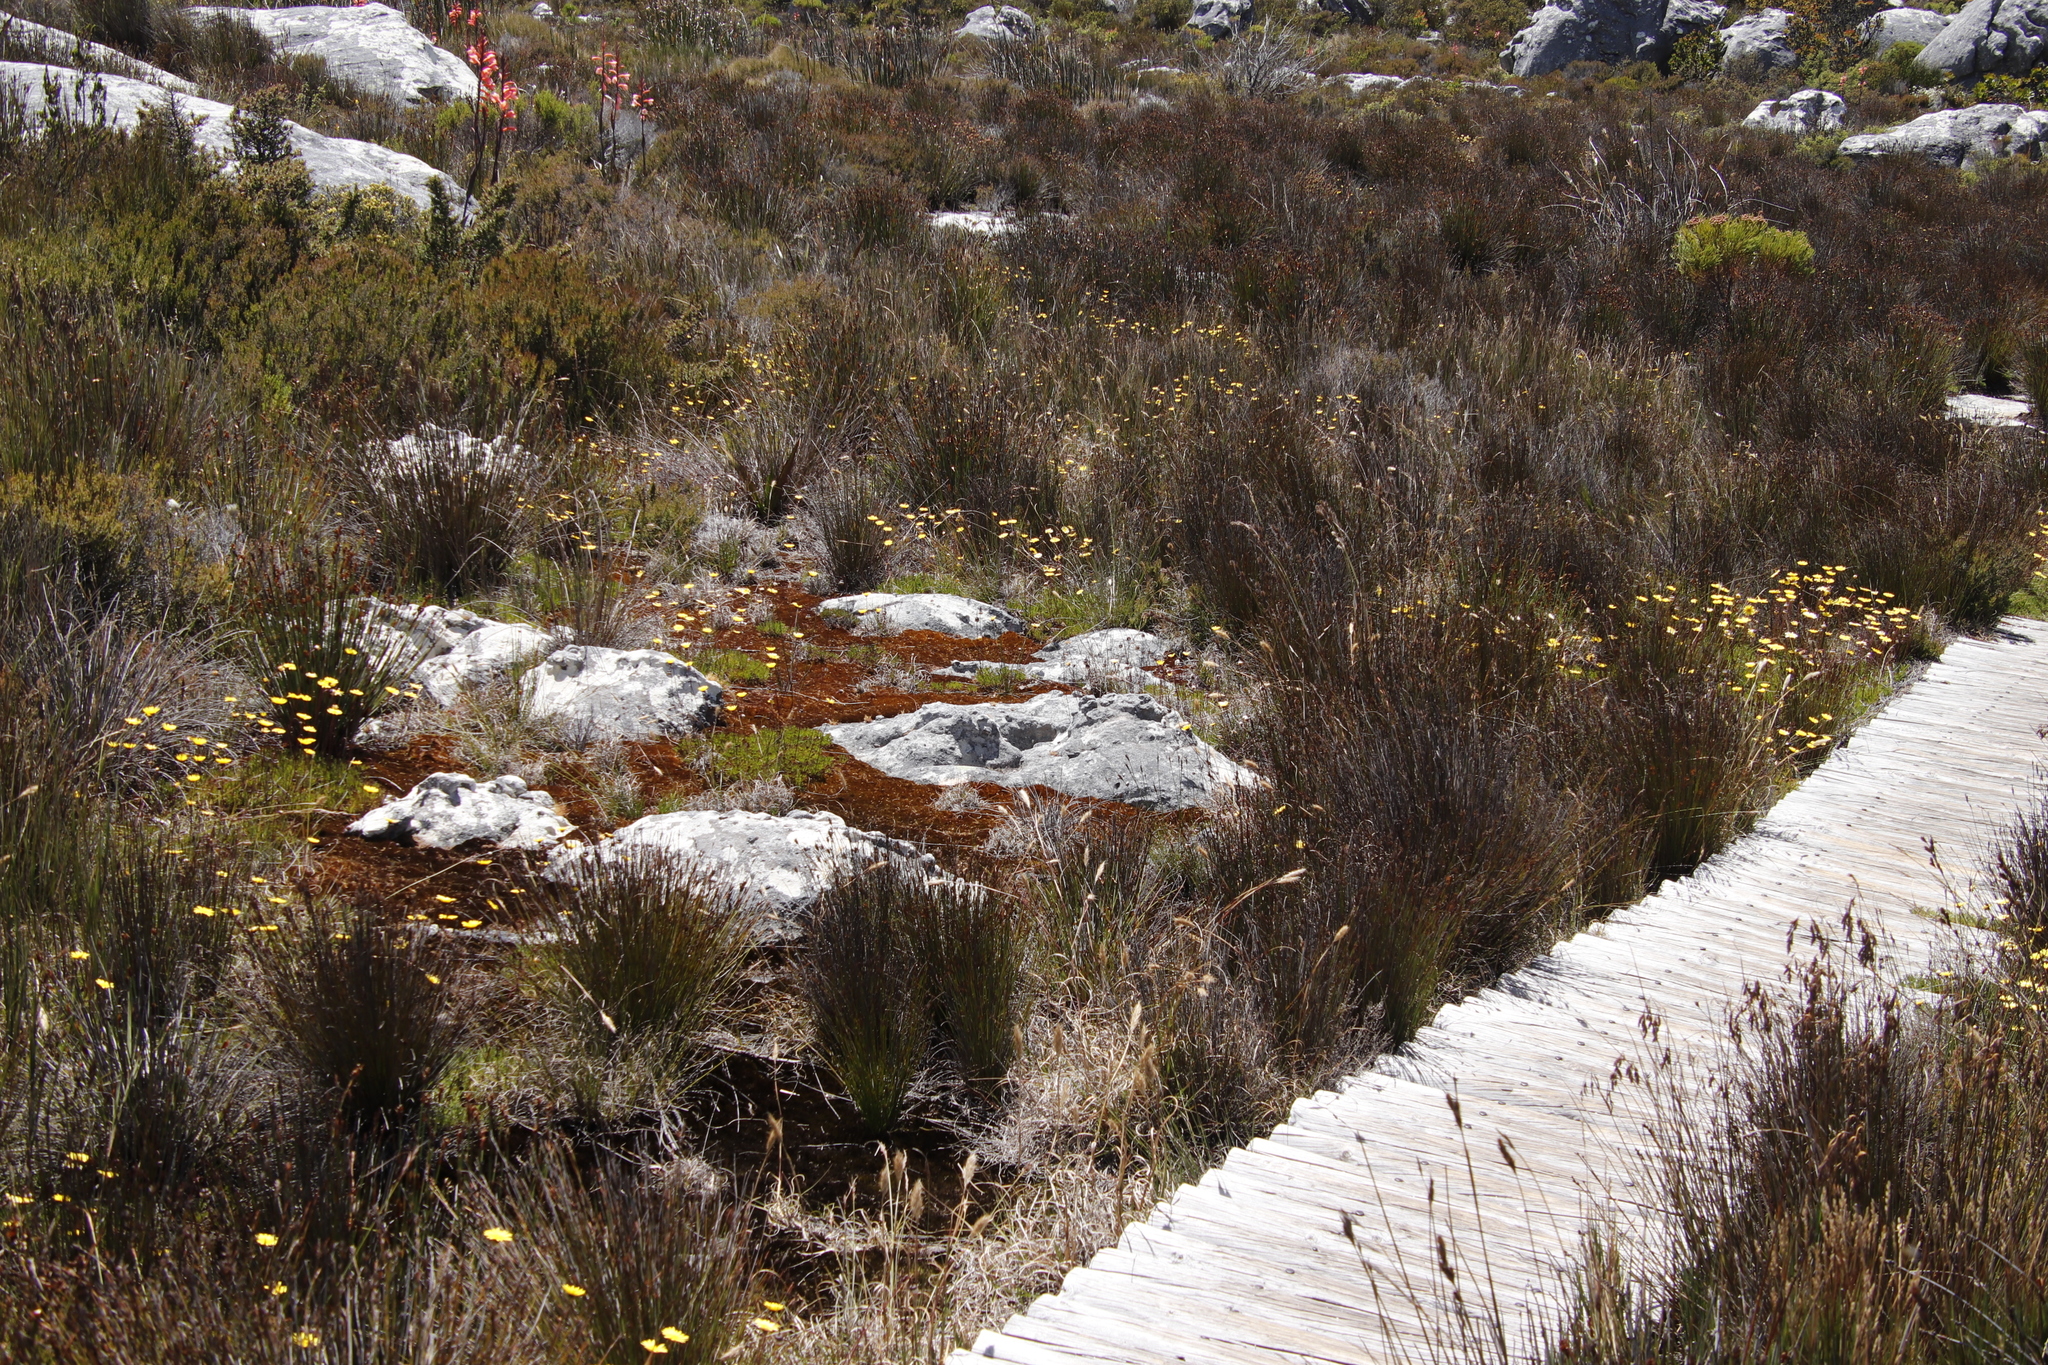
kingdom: Plantae
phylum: Tracheophyta
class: Magnoliopsida
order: Asterales
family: Asteraceae
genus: Ursinia
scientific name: Ursinia nudicaulis
